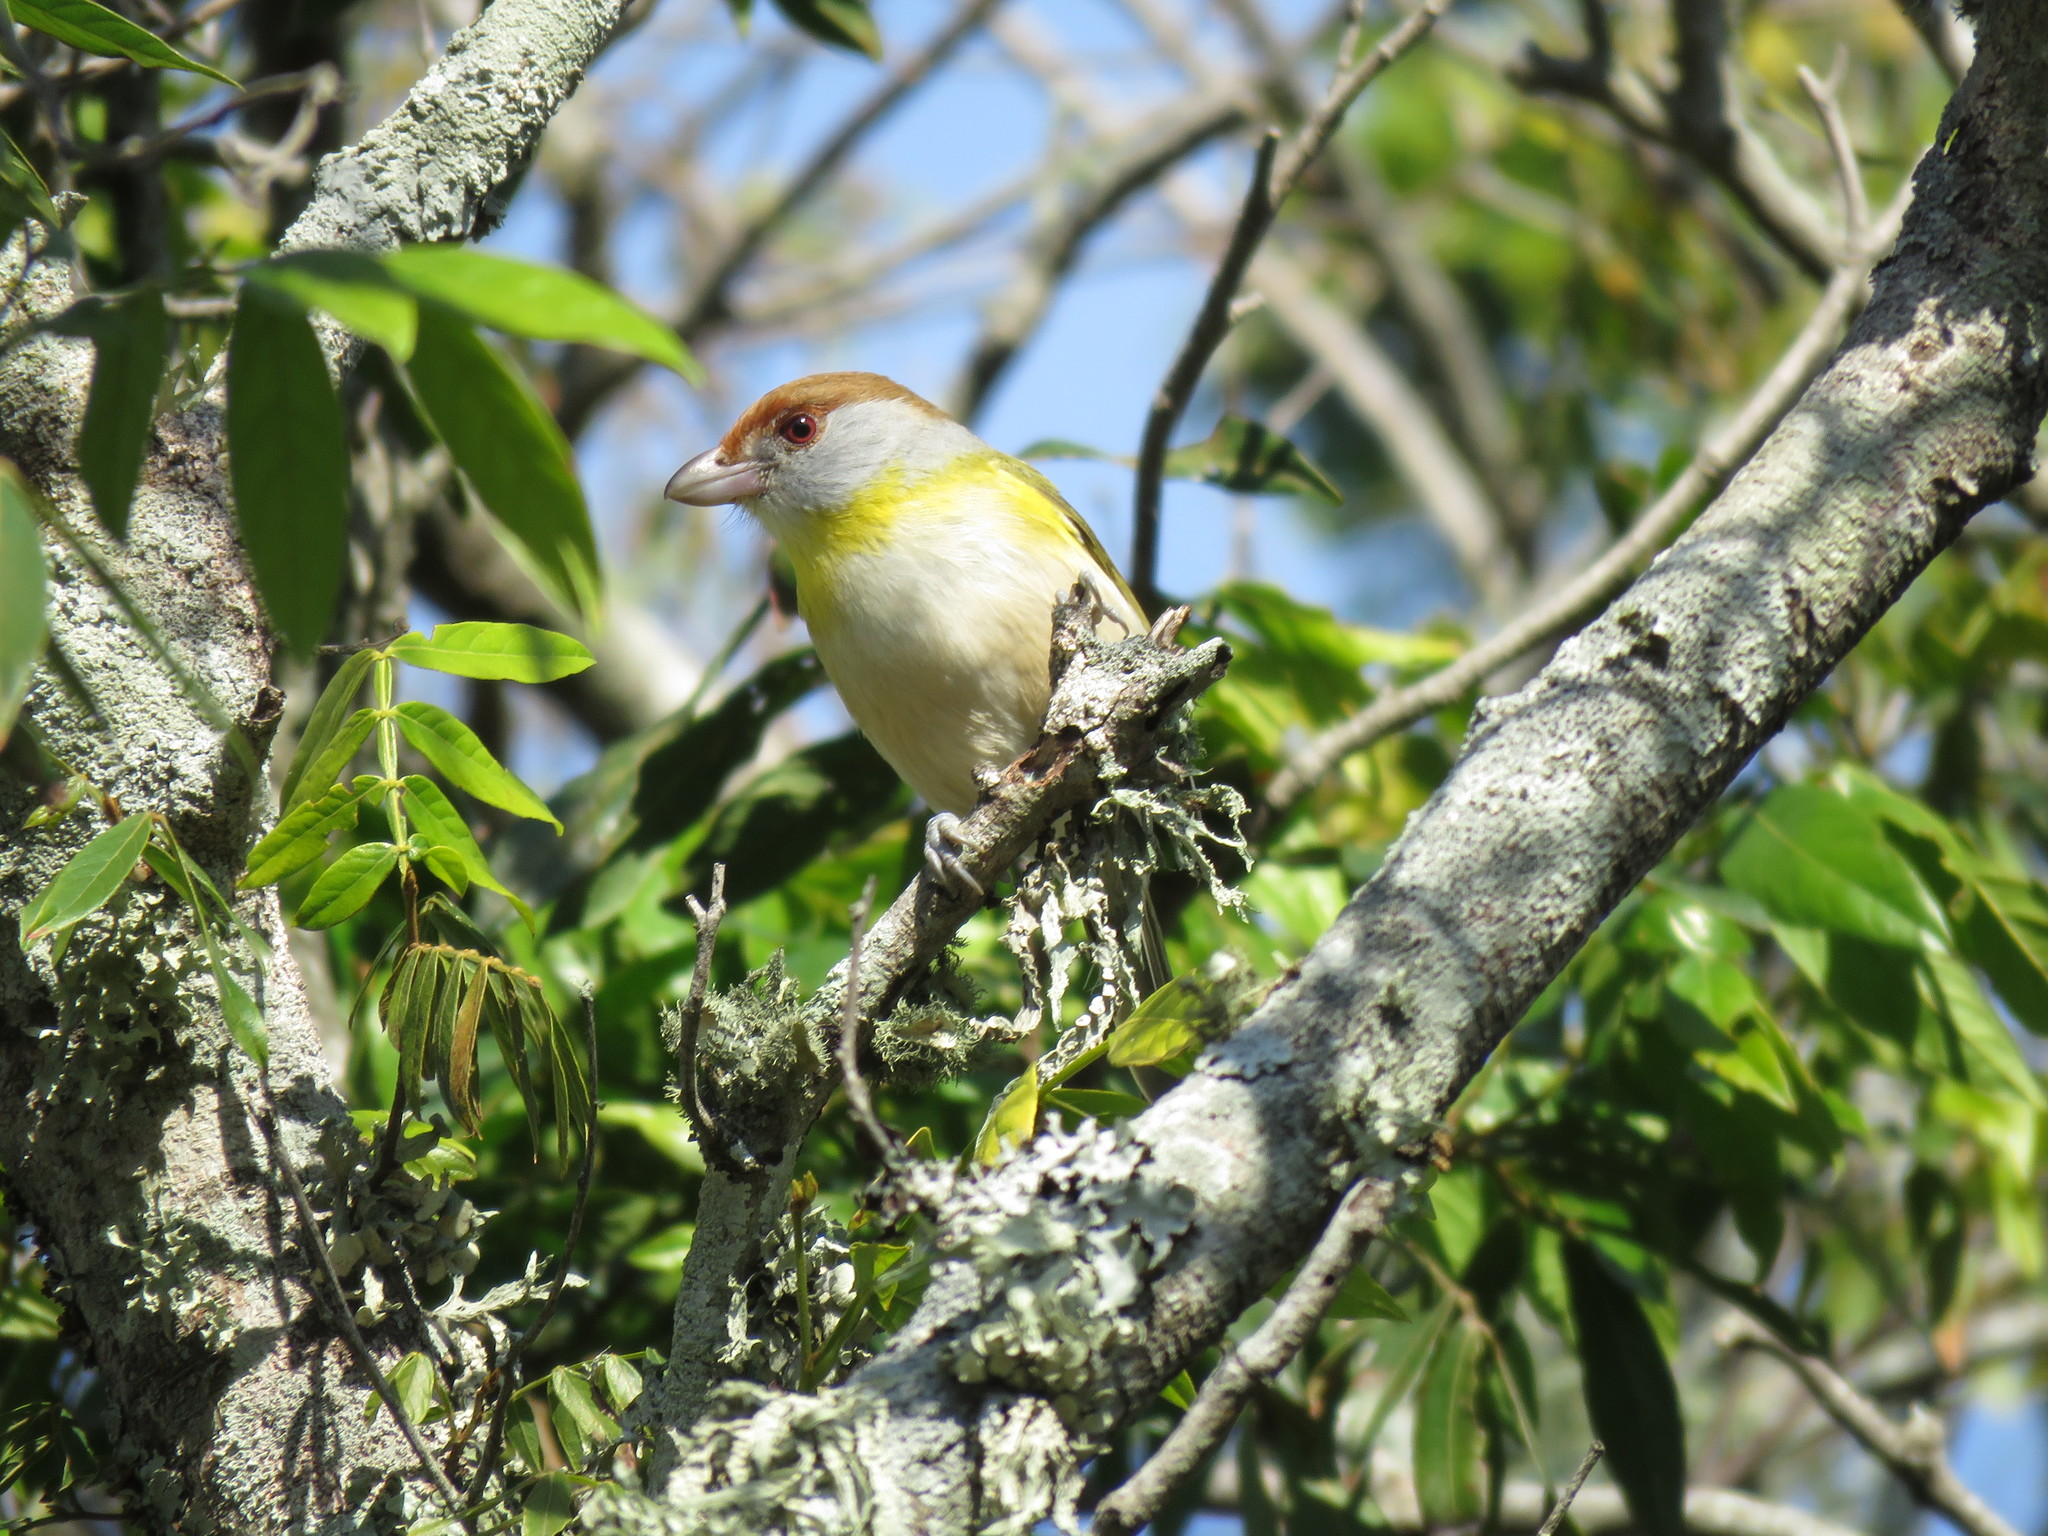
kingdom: Animalia
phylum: Chordata
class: Aves
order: Passeriformes
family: Vireonidae
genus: Cyclarhis
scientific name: Cyclarhis gujanensis
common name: Rufous-browed peppershrike
